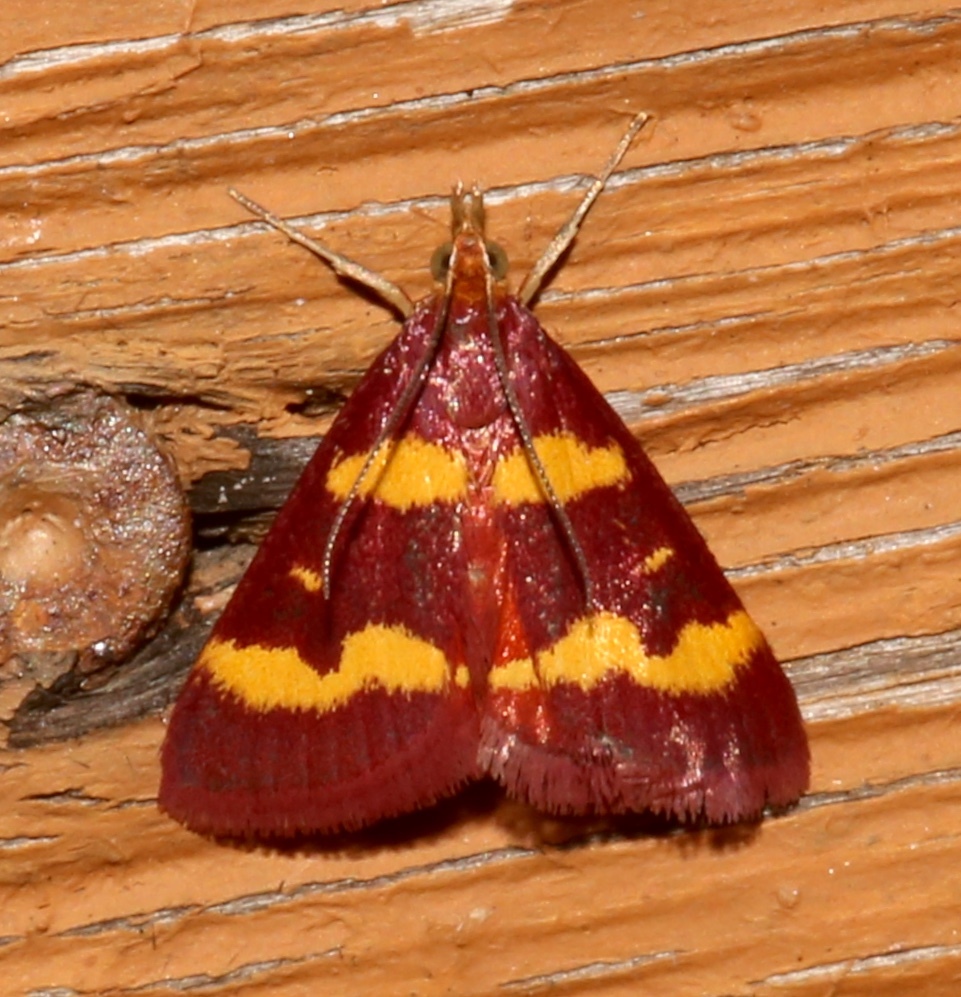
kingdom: Animalia
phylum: Arthropoda
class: Insecta
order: Lepidoptera
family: Crambidae
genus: Pyrausta
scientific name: Pyrausta tyralis
